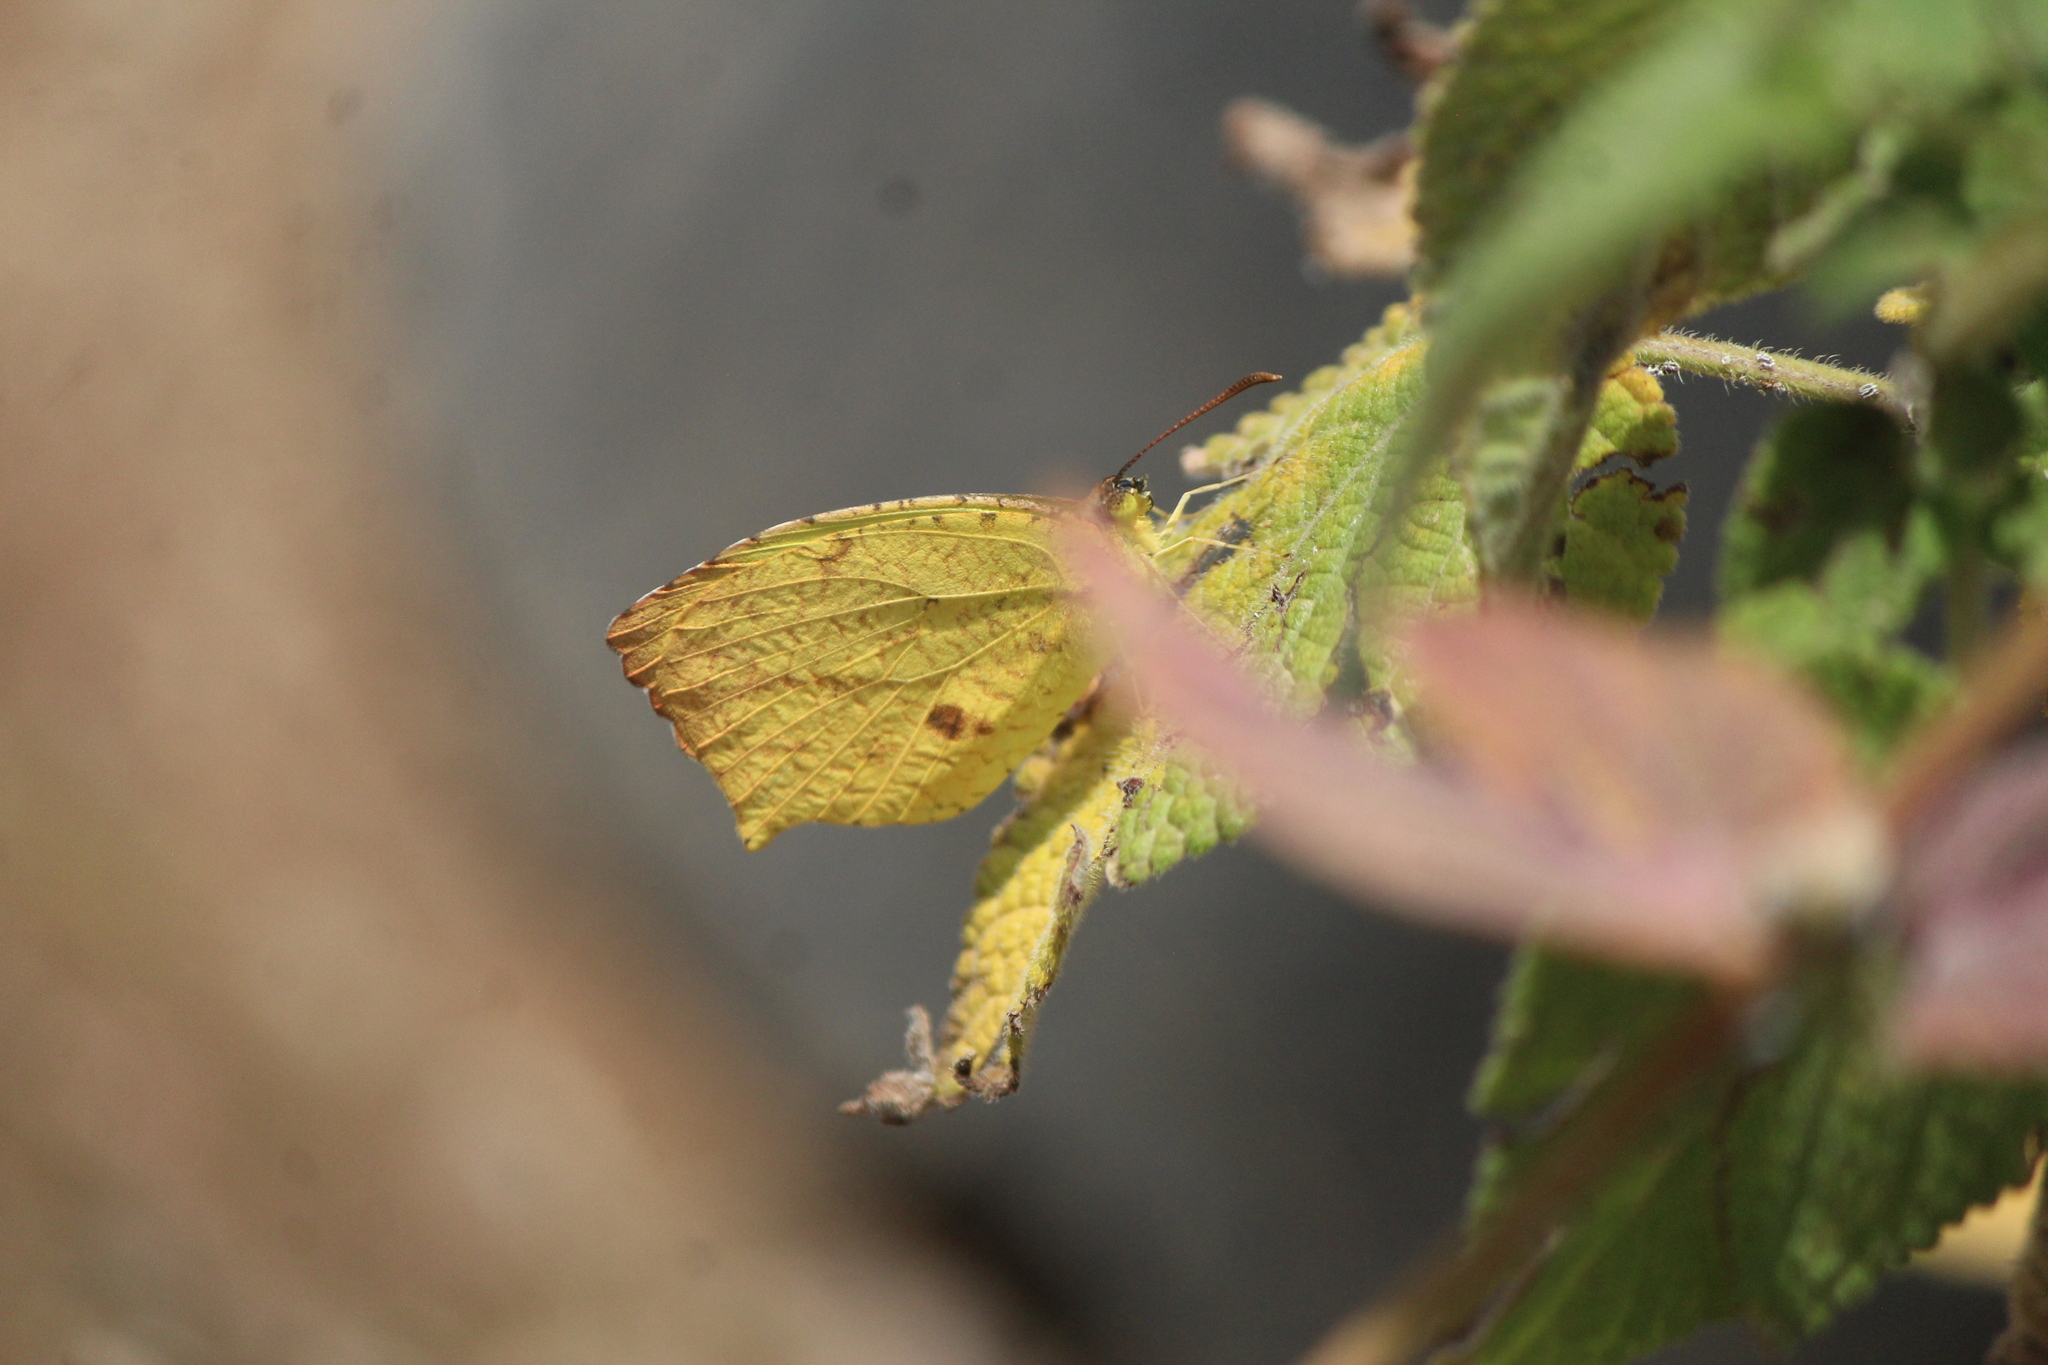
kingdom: Animalia
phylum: Arthropoda
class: Insecta
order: Lepidoptera
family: Pieridae
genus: Abaeis
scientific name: Abaeis salome
